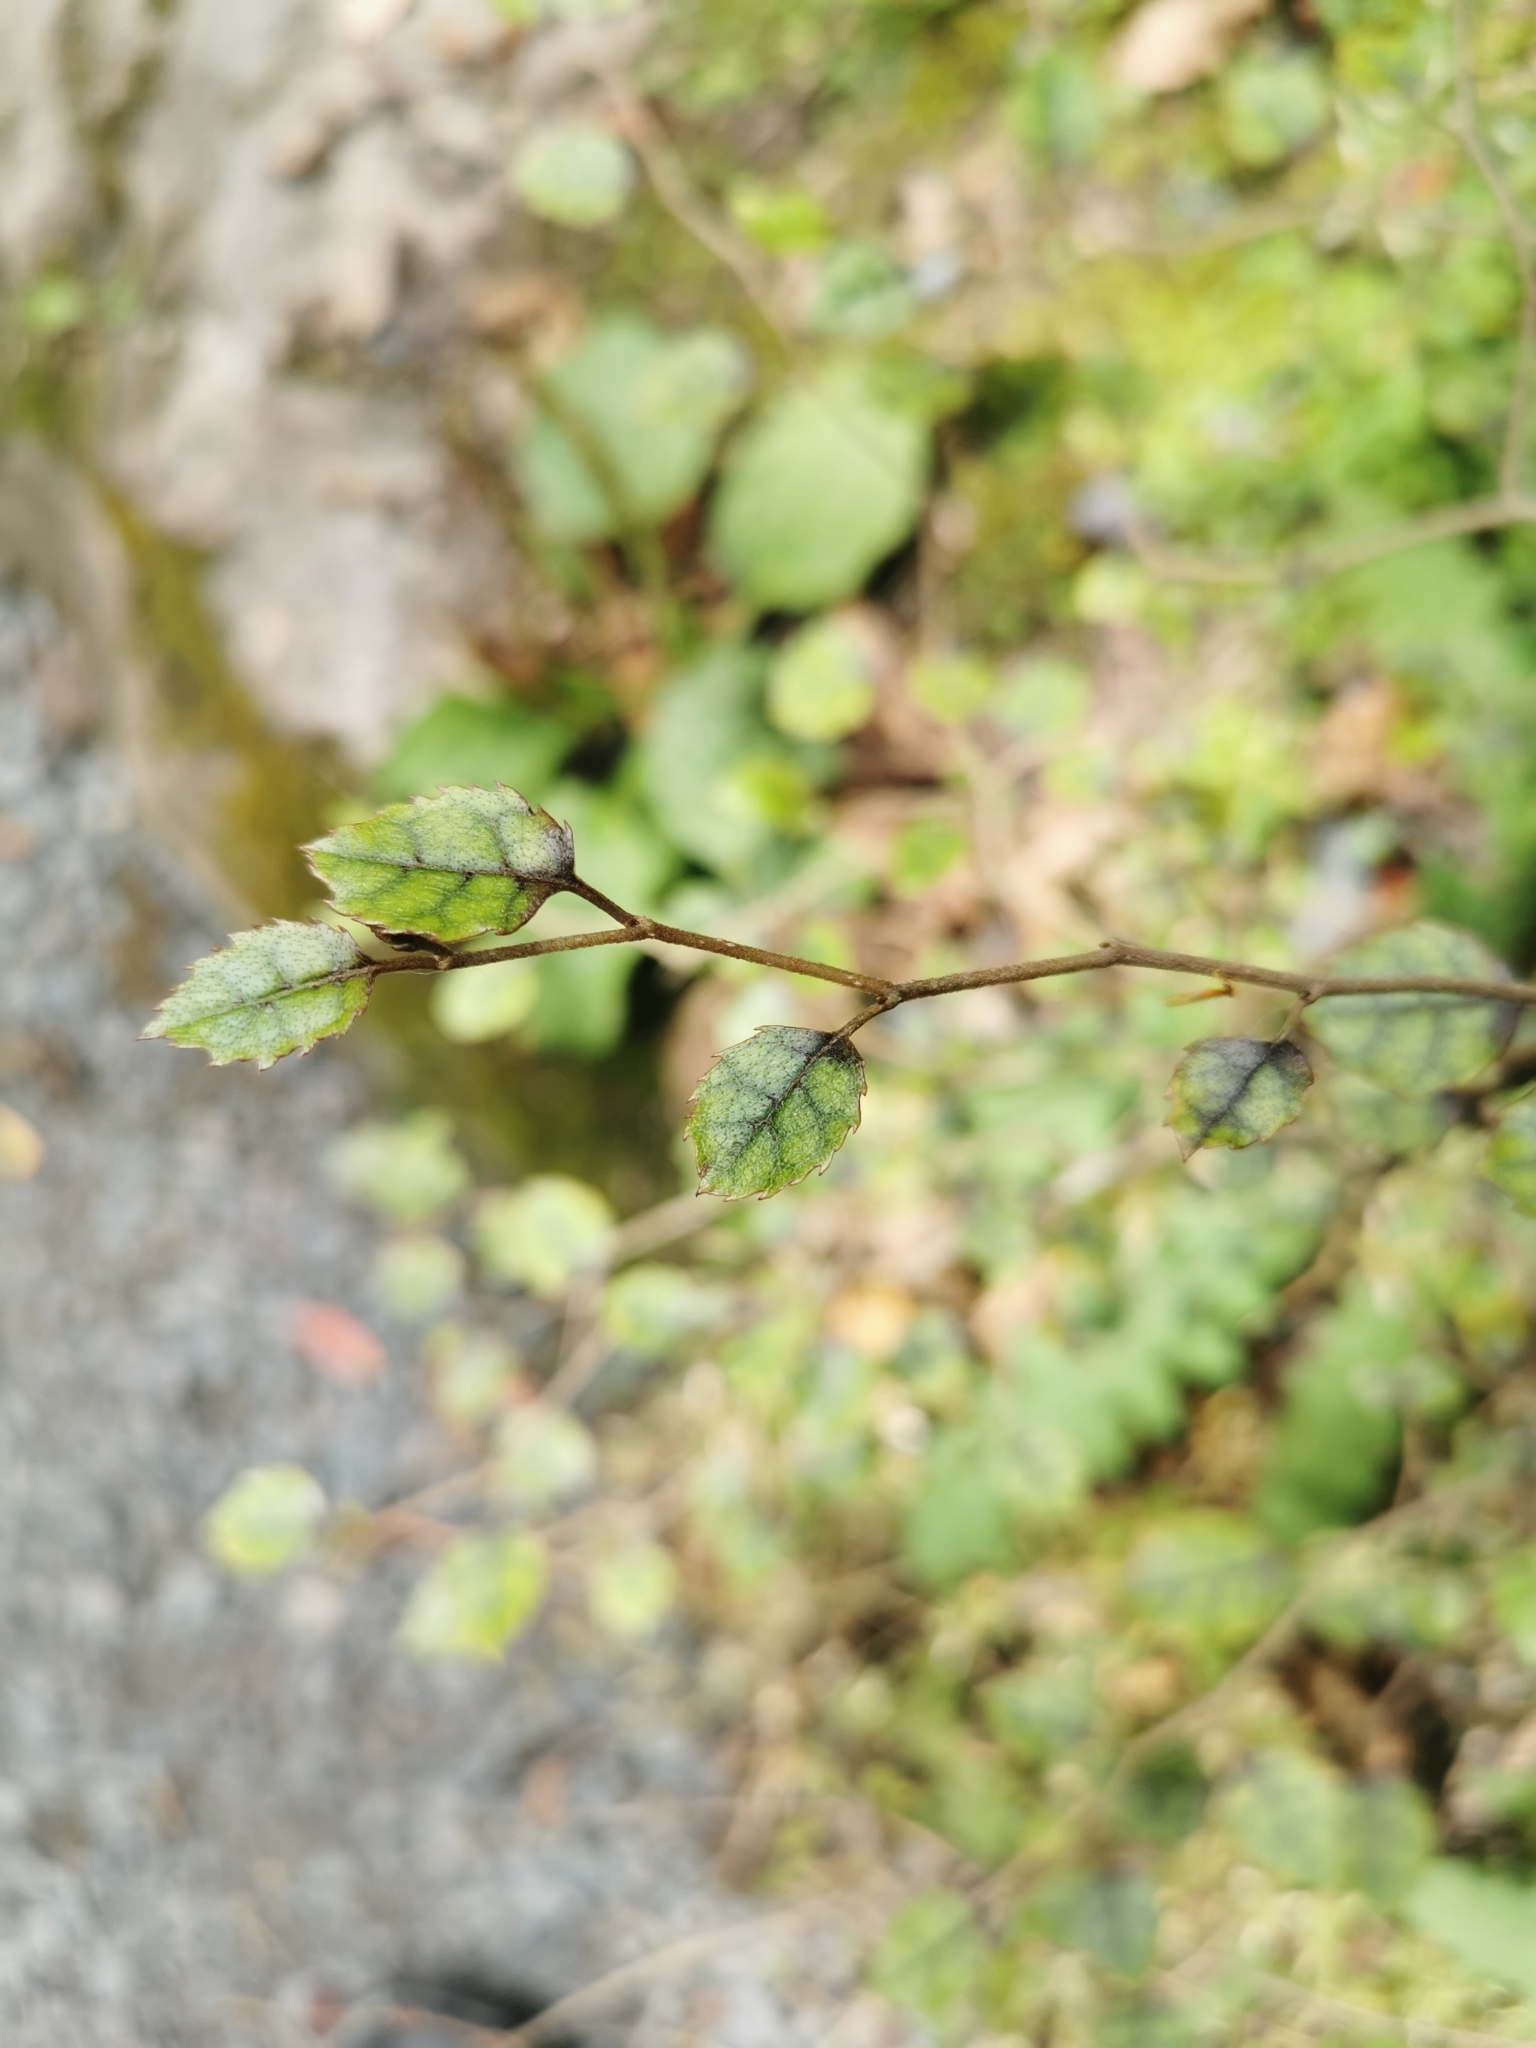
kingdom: Plantae
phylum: Tracheophyta
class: Magnoliopsida
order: Asterales
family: Rousseaceae
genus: Carpodetus
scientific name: Carpodetus serratus
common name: White mapau
